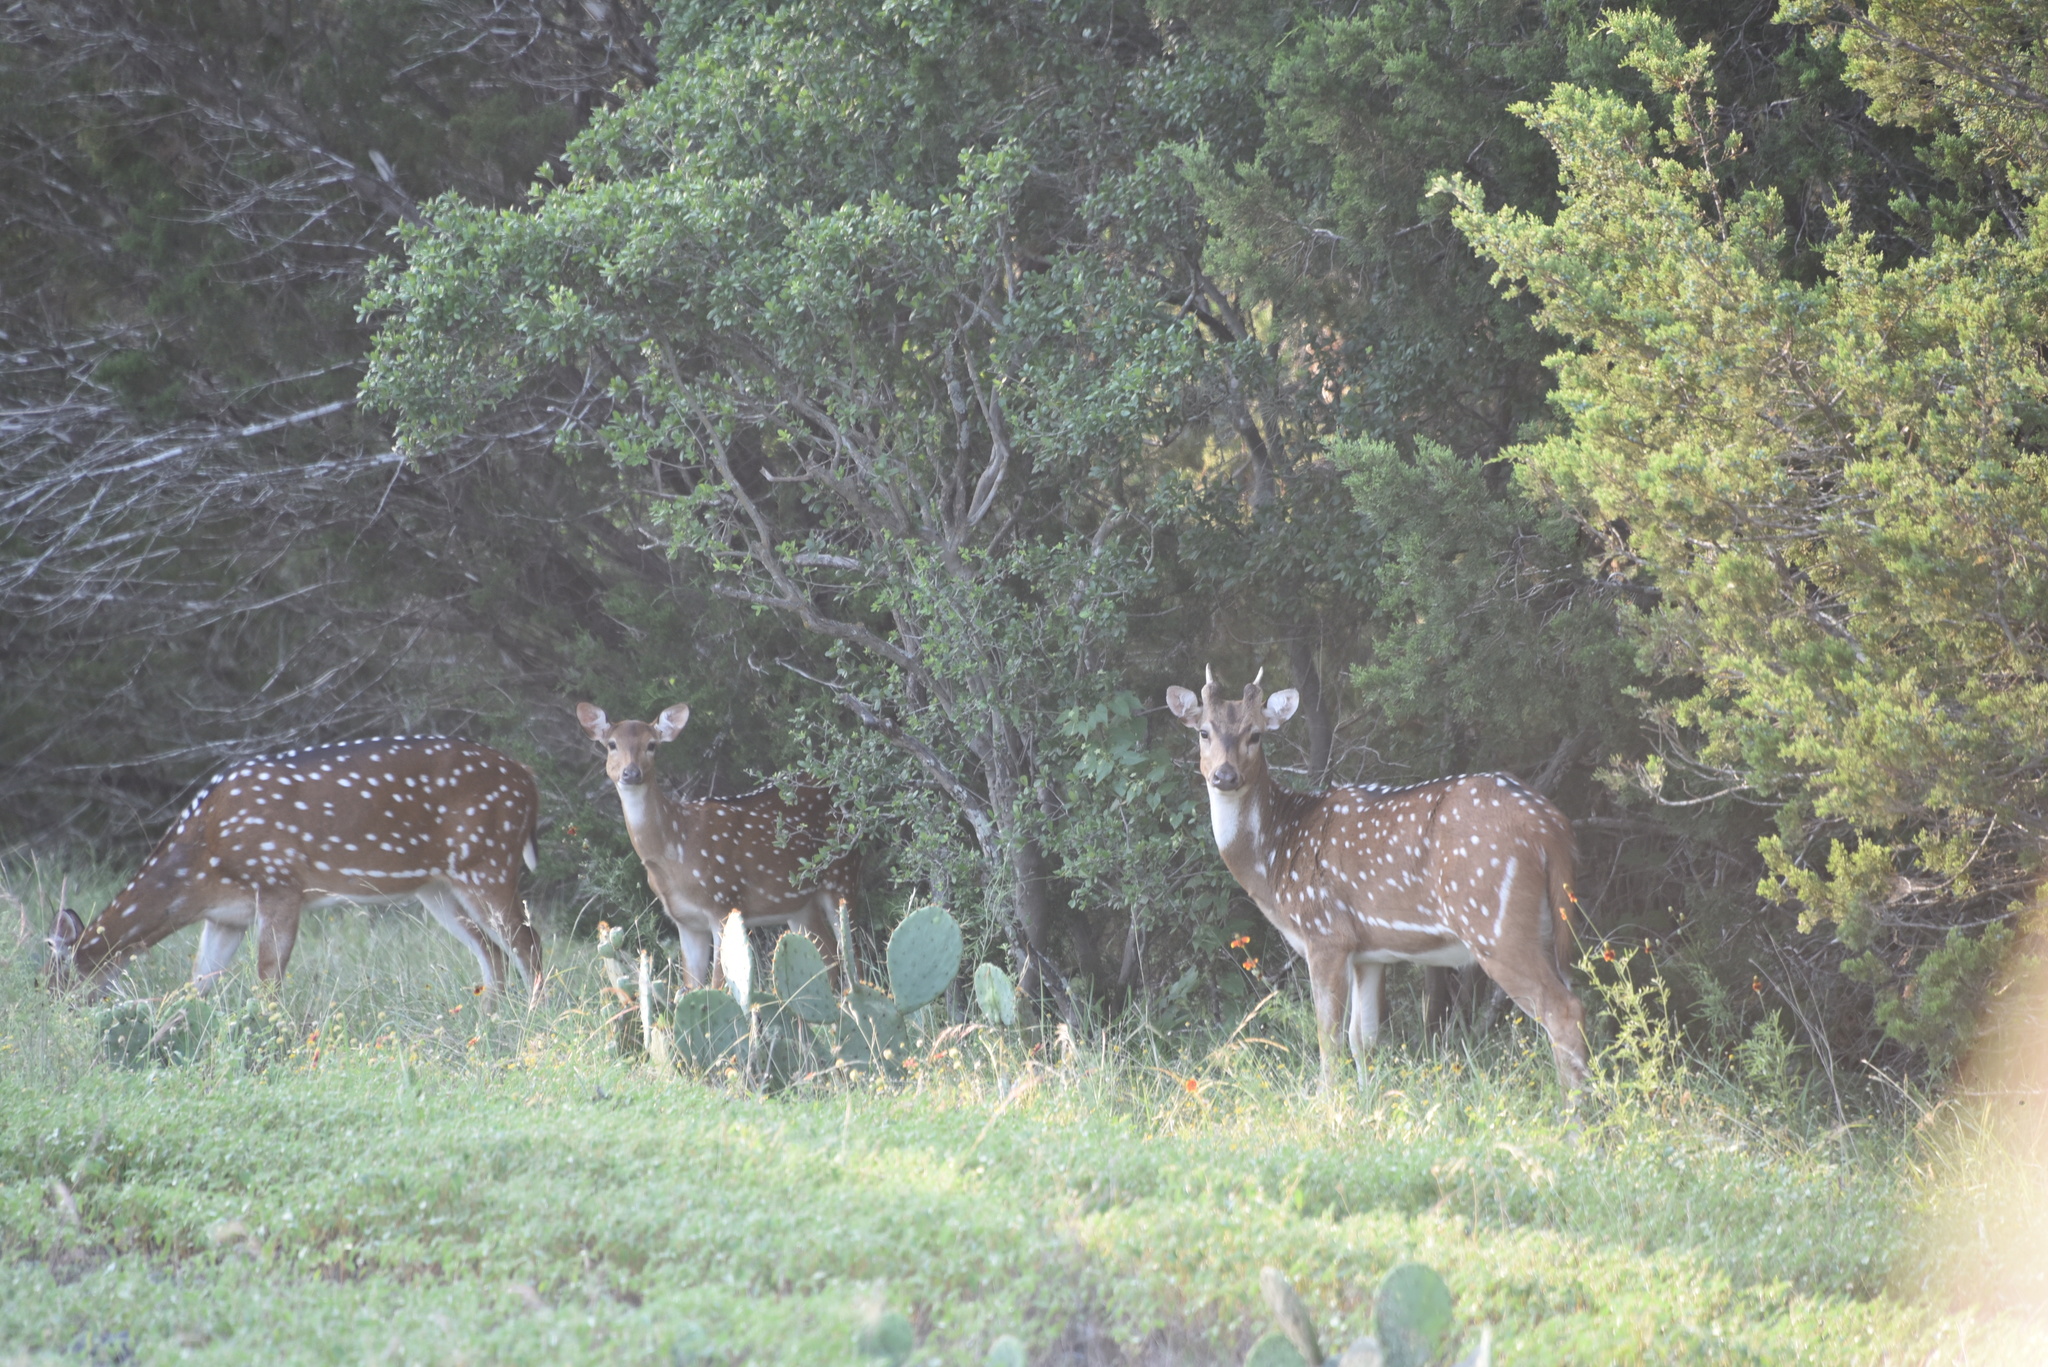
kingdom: Animalia
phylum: Chordata
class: Mammalia
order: Artiodactyla
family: Cervidae
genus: Axis
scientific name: Axis axis
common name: Chital
